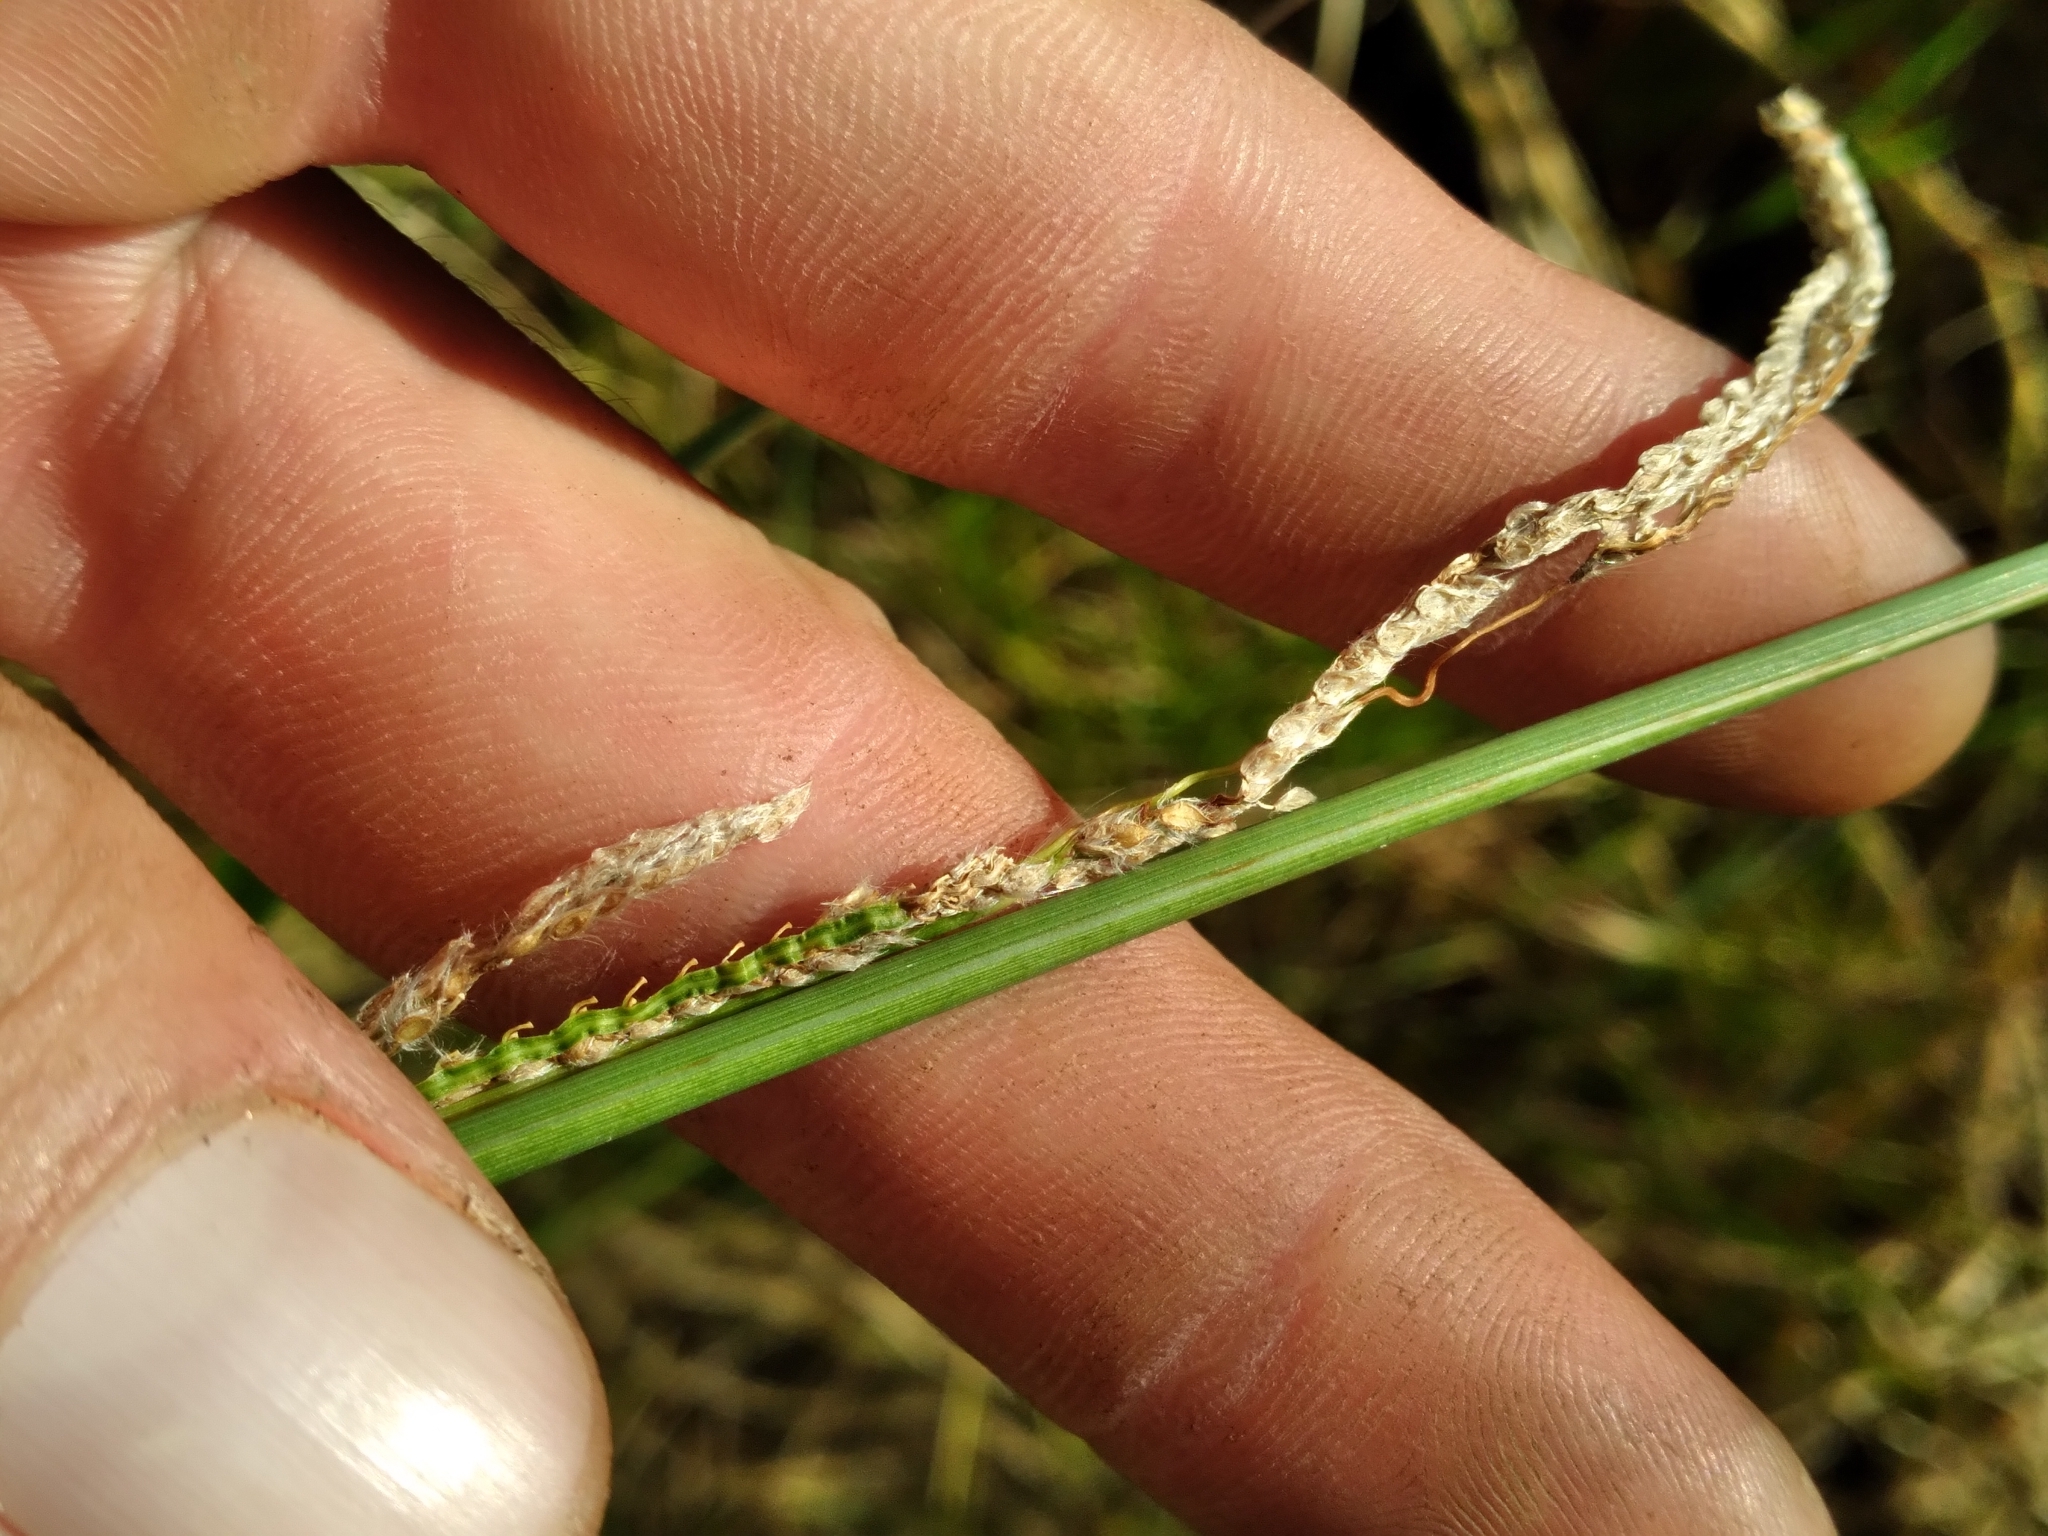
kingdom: Plantae
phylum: Tracheophyta
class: Liliopsida
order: Poales
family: Poaceae
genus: Paspalum
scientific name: Paspalum urvillei
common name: Vasey's grass
